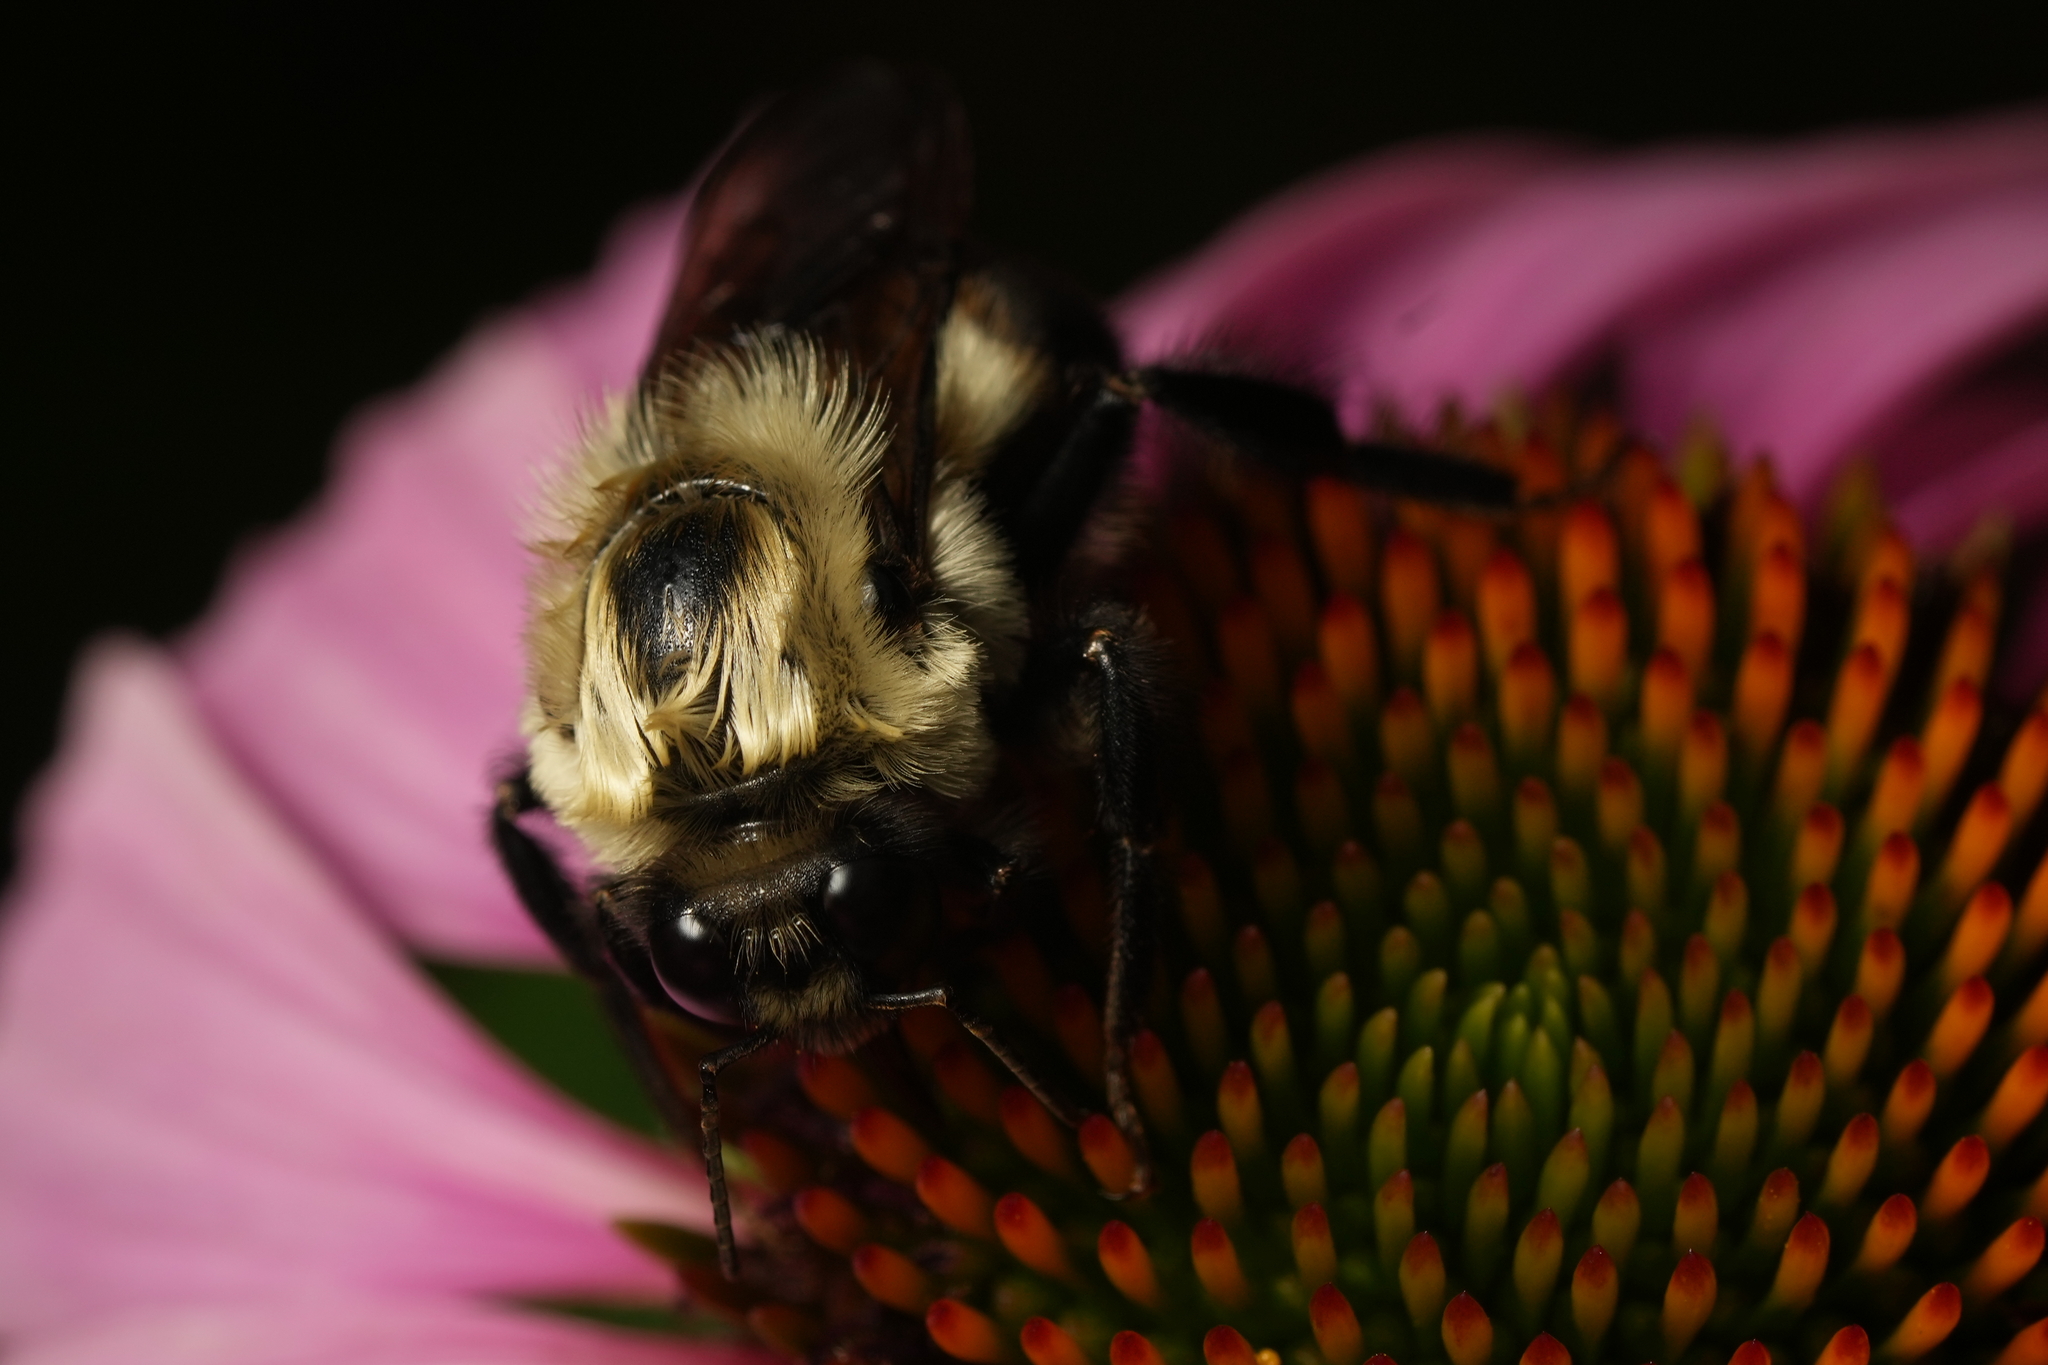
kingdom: Animalia
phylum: Arthropoda
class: Insecta
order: Hymenoptera
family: Apidae
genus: Bombus
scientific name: Bombus griseocollis
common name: Brown-belted bumble bee
